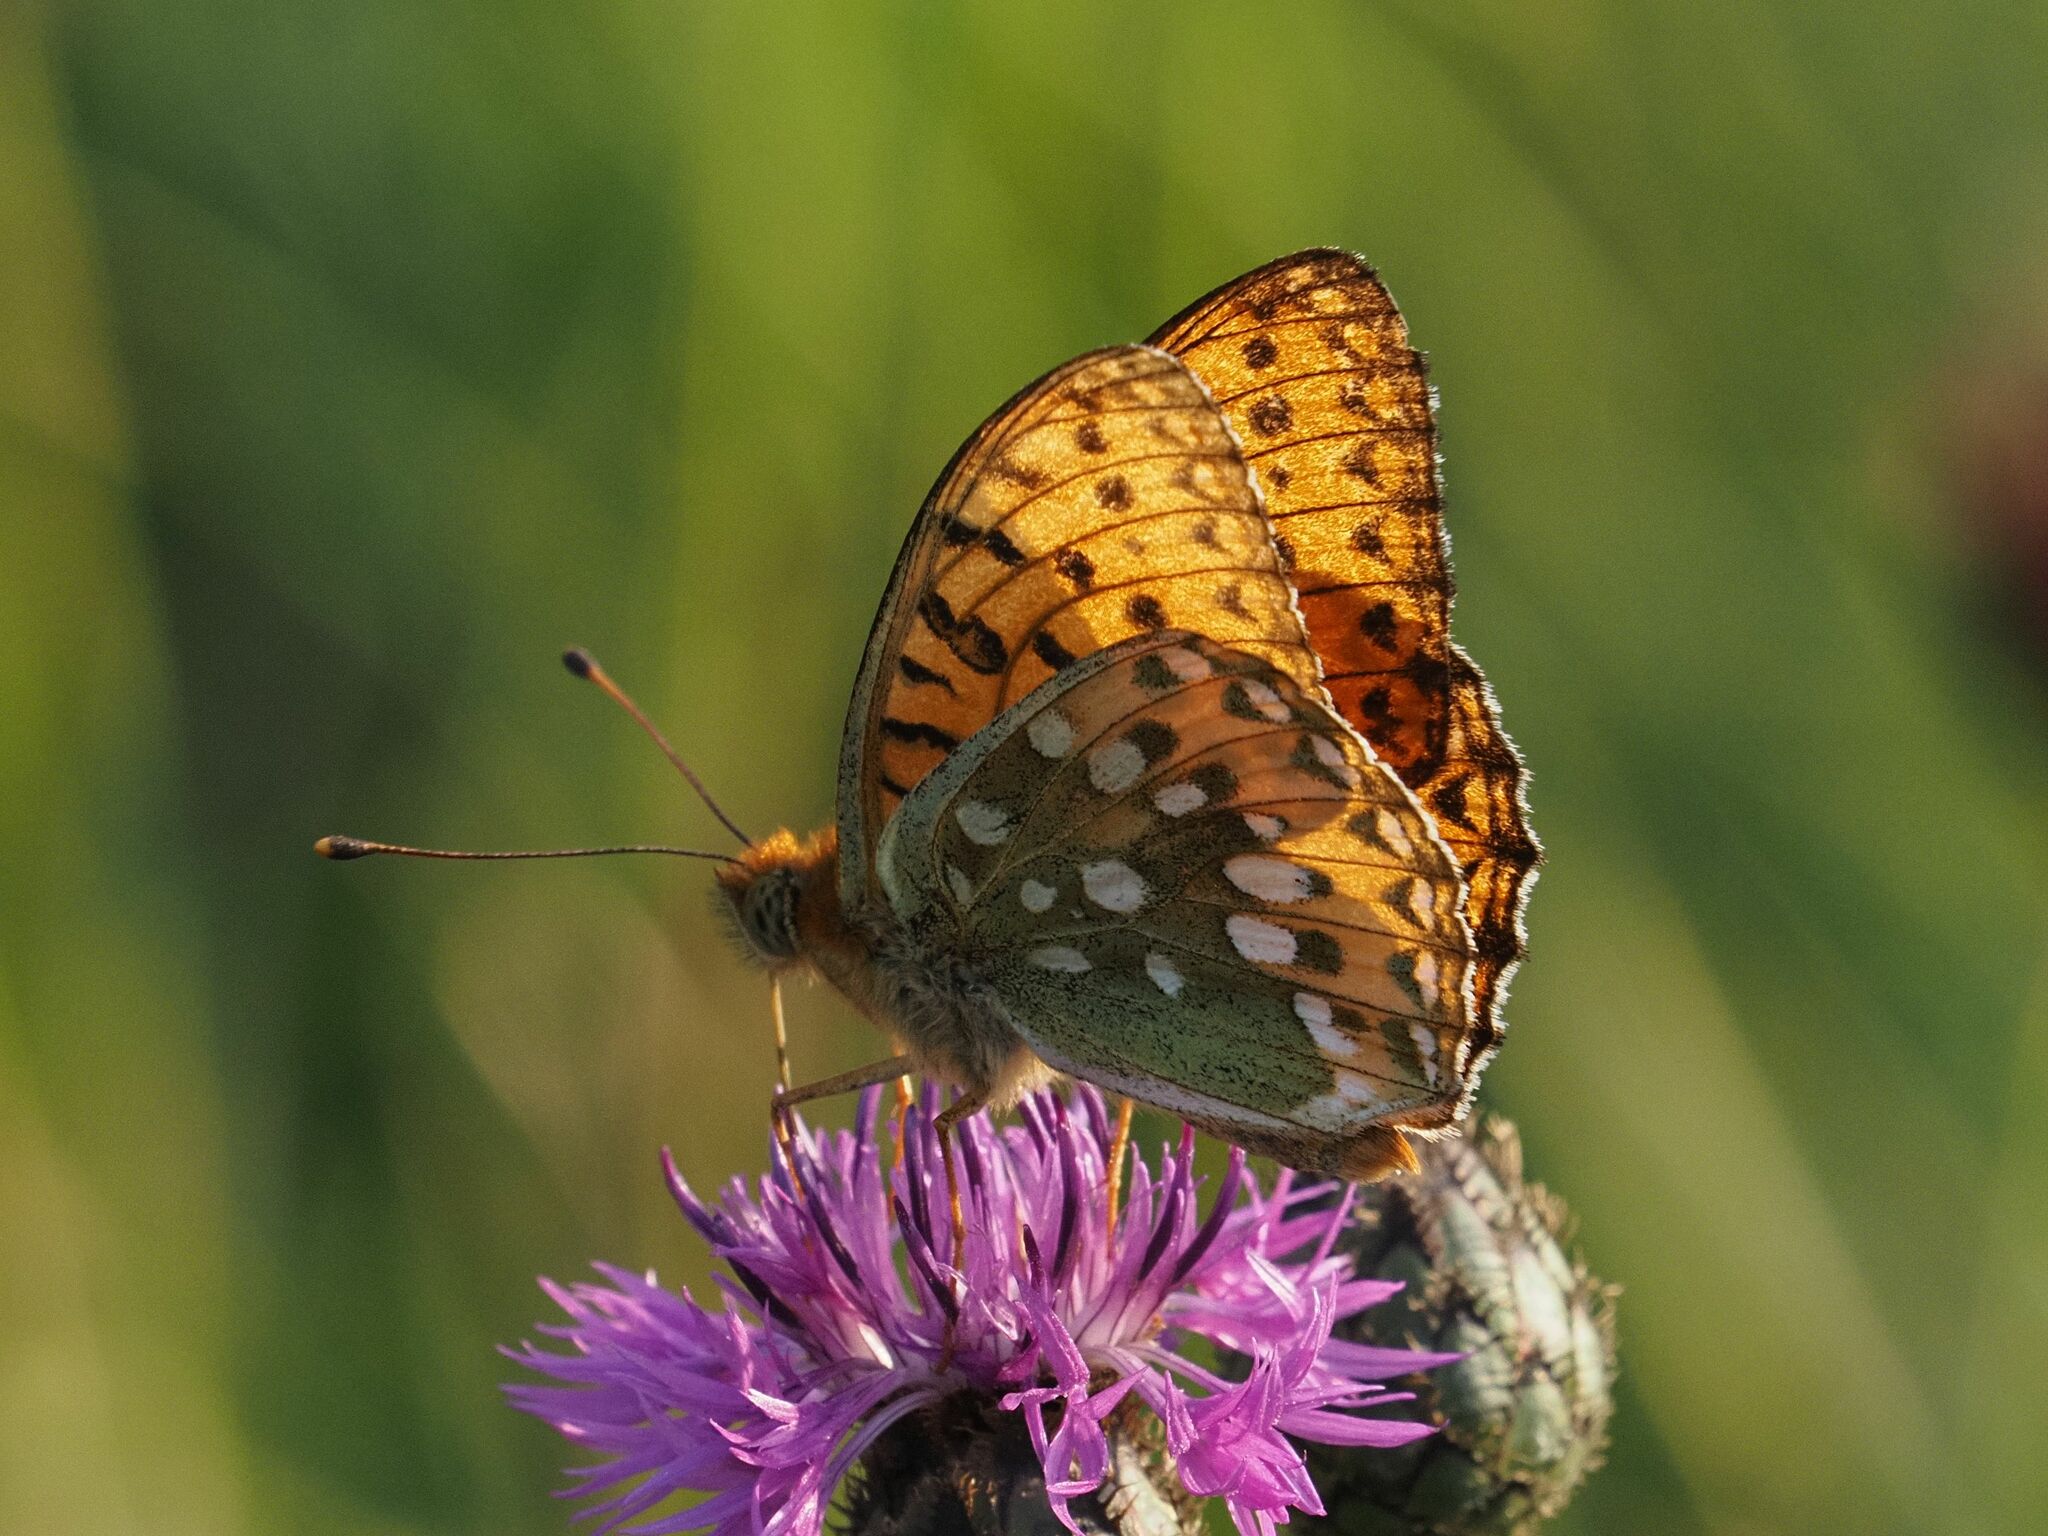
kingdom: Animalia
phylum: Arthropoda
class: Insecta
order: Lepidoptera
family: Nymphalidae
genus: Speyeria
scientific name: Speyeria aglaja
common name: Dark green fritillary
